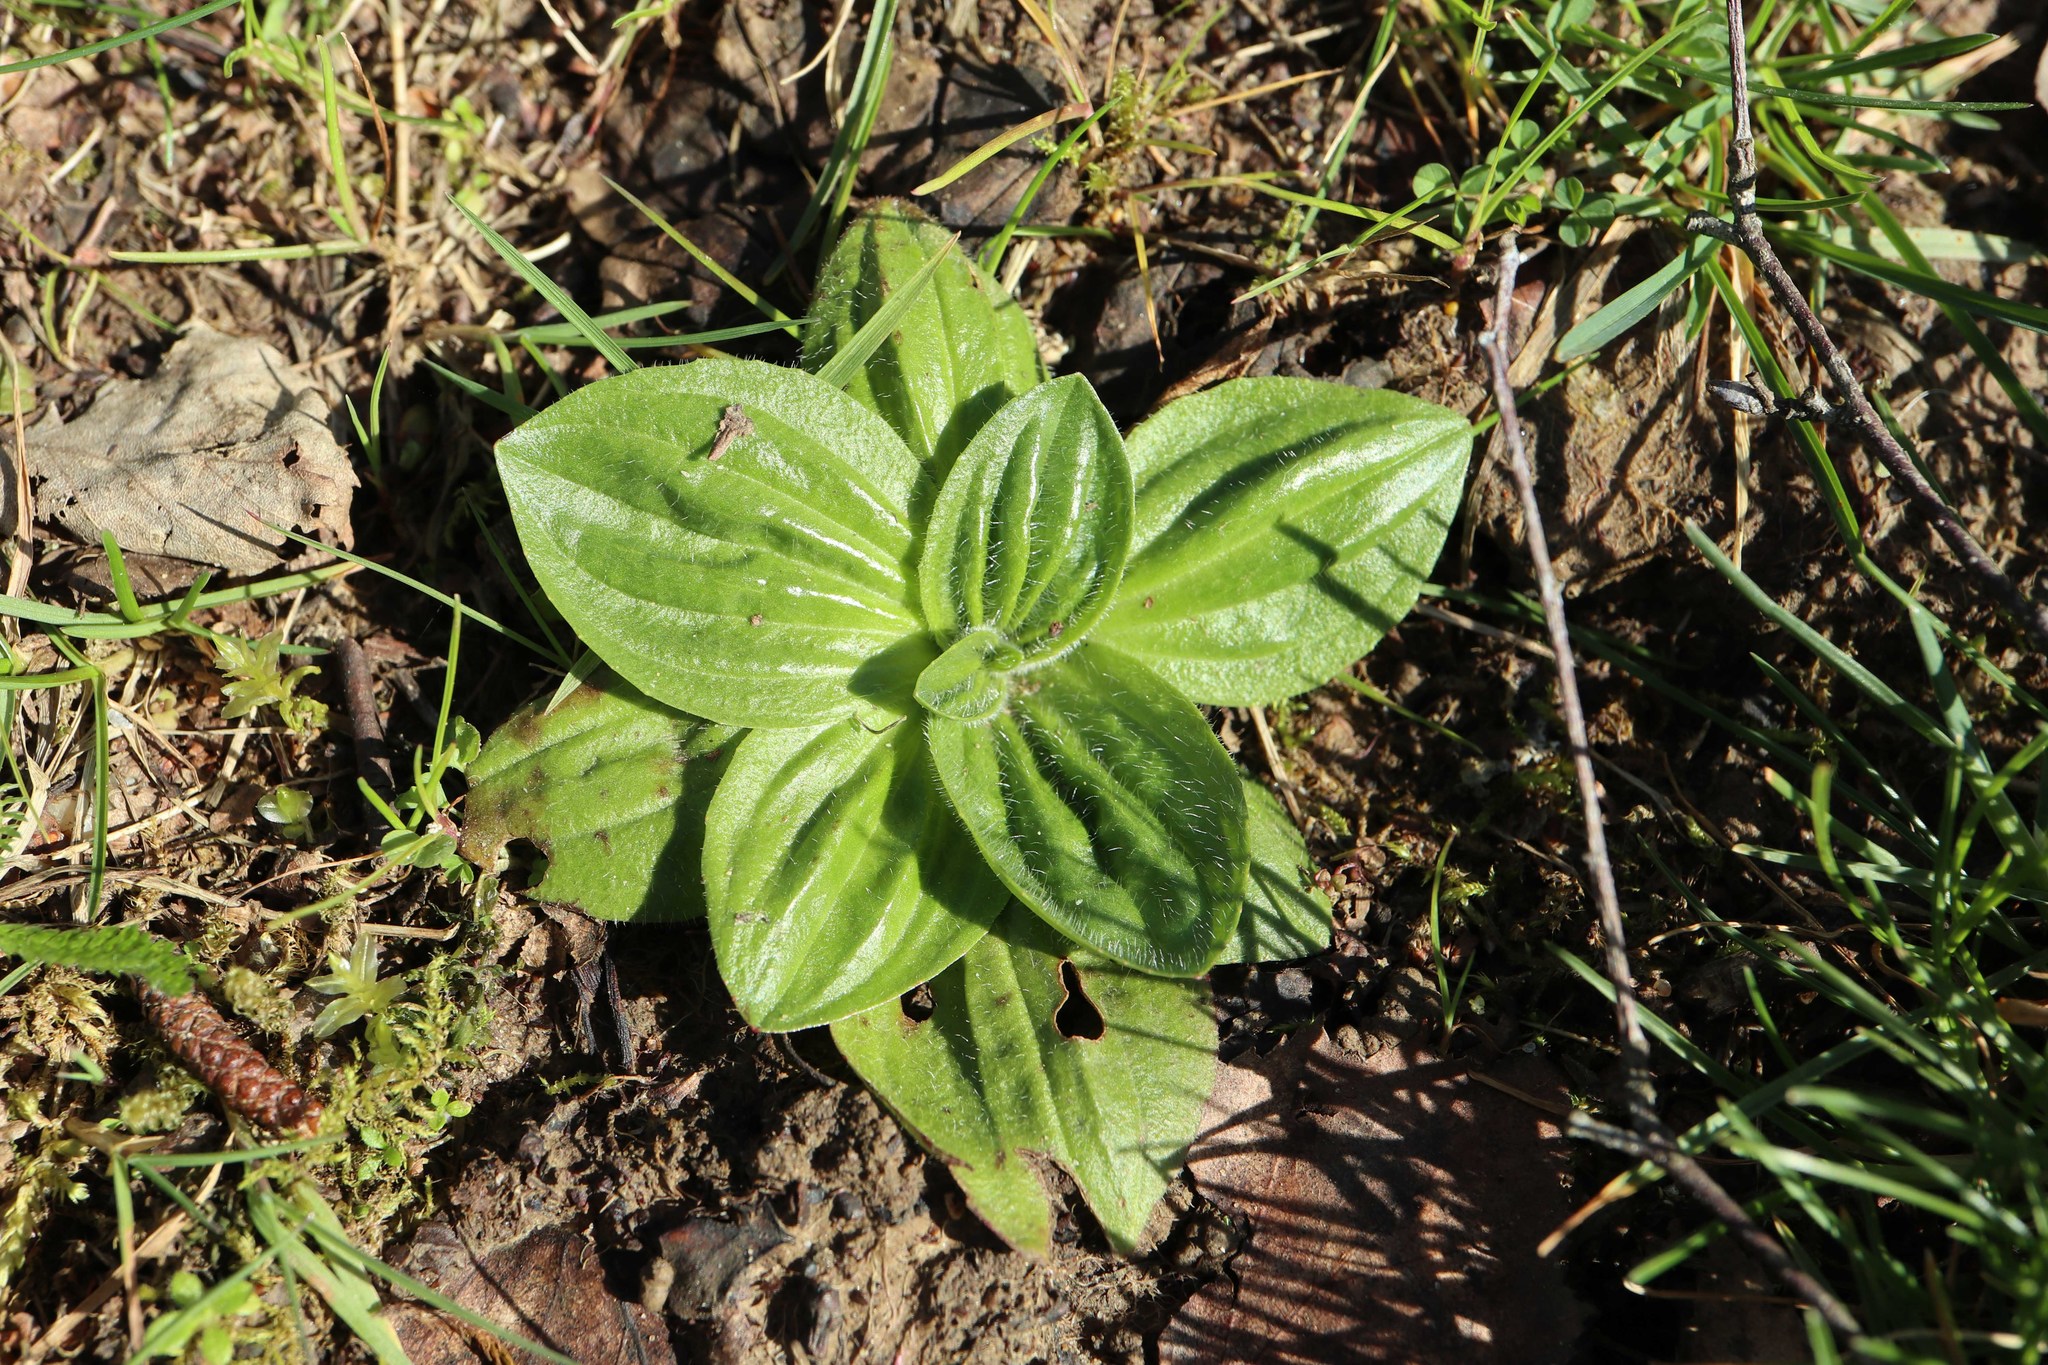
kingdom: Plantae
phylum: Tracheophyta
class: Magnoliopsida
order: Lamiales
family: Plantaginaceae
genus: Plantago
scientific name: Plantago media
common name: Hoary plantain
